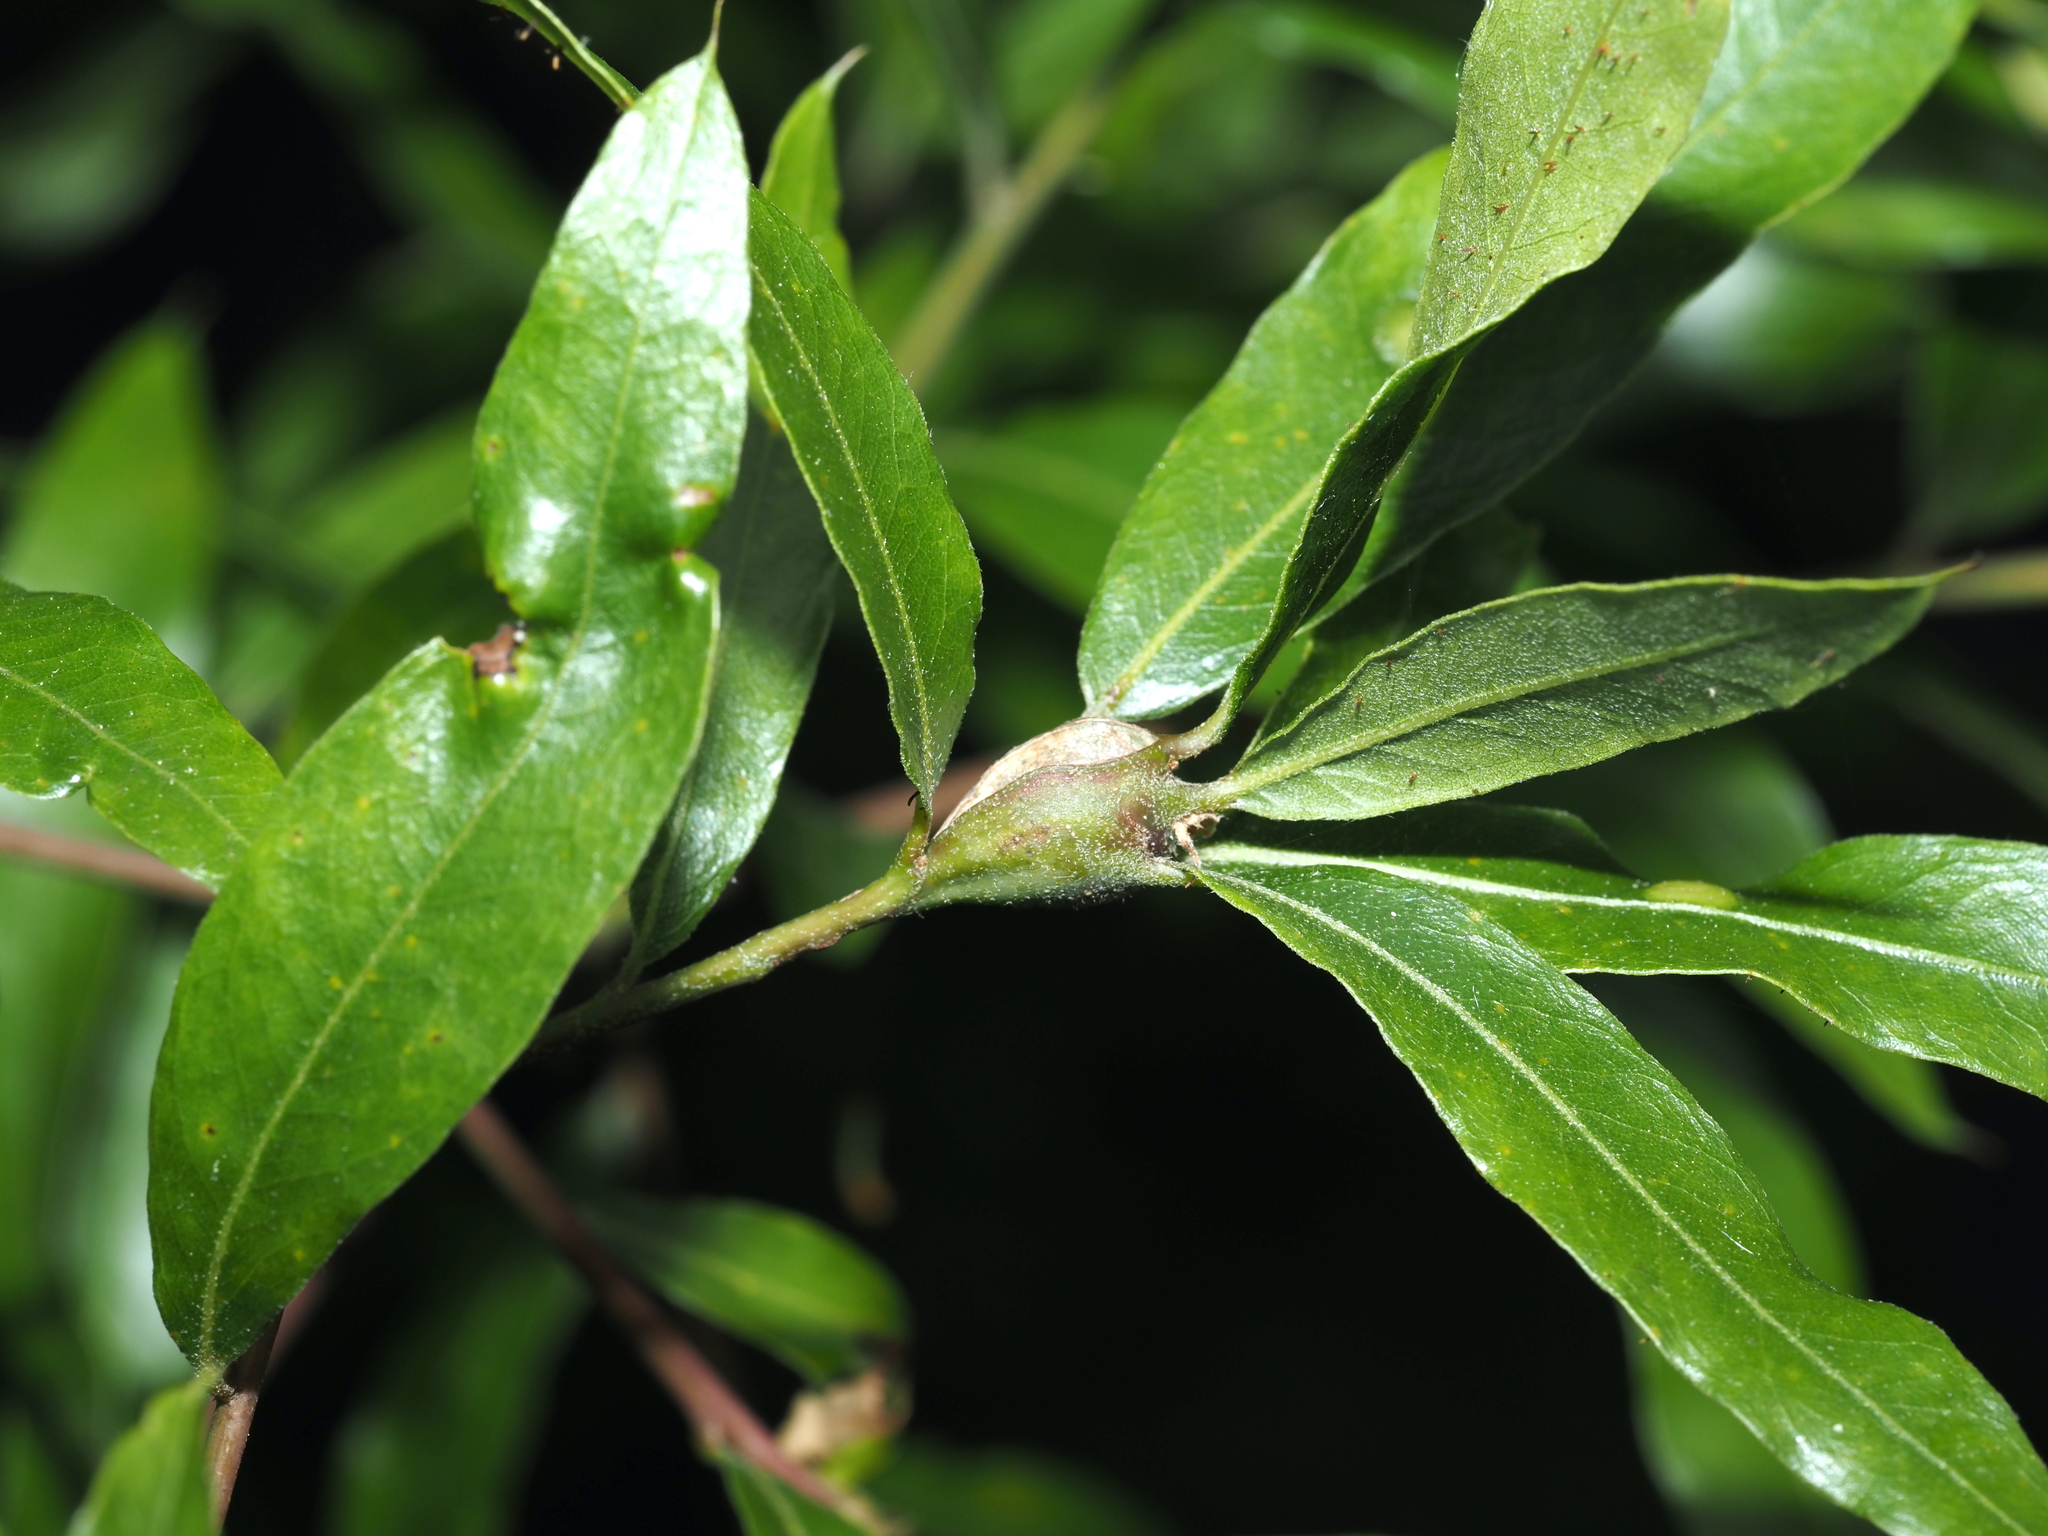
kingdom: Animalia
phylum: Arthropoda
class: Insecta
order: Hymenoptera
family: Cynipidae
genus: Zapatella
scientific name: Zapatella quercusphellos
